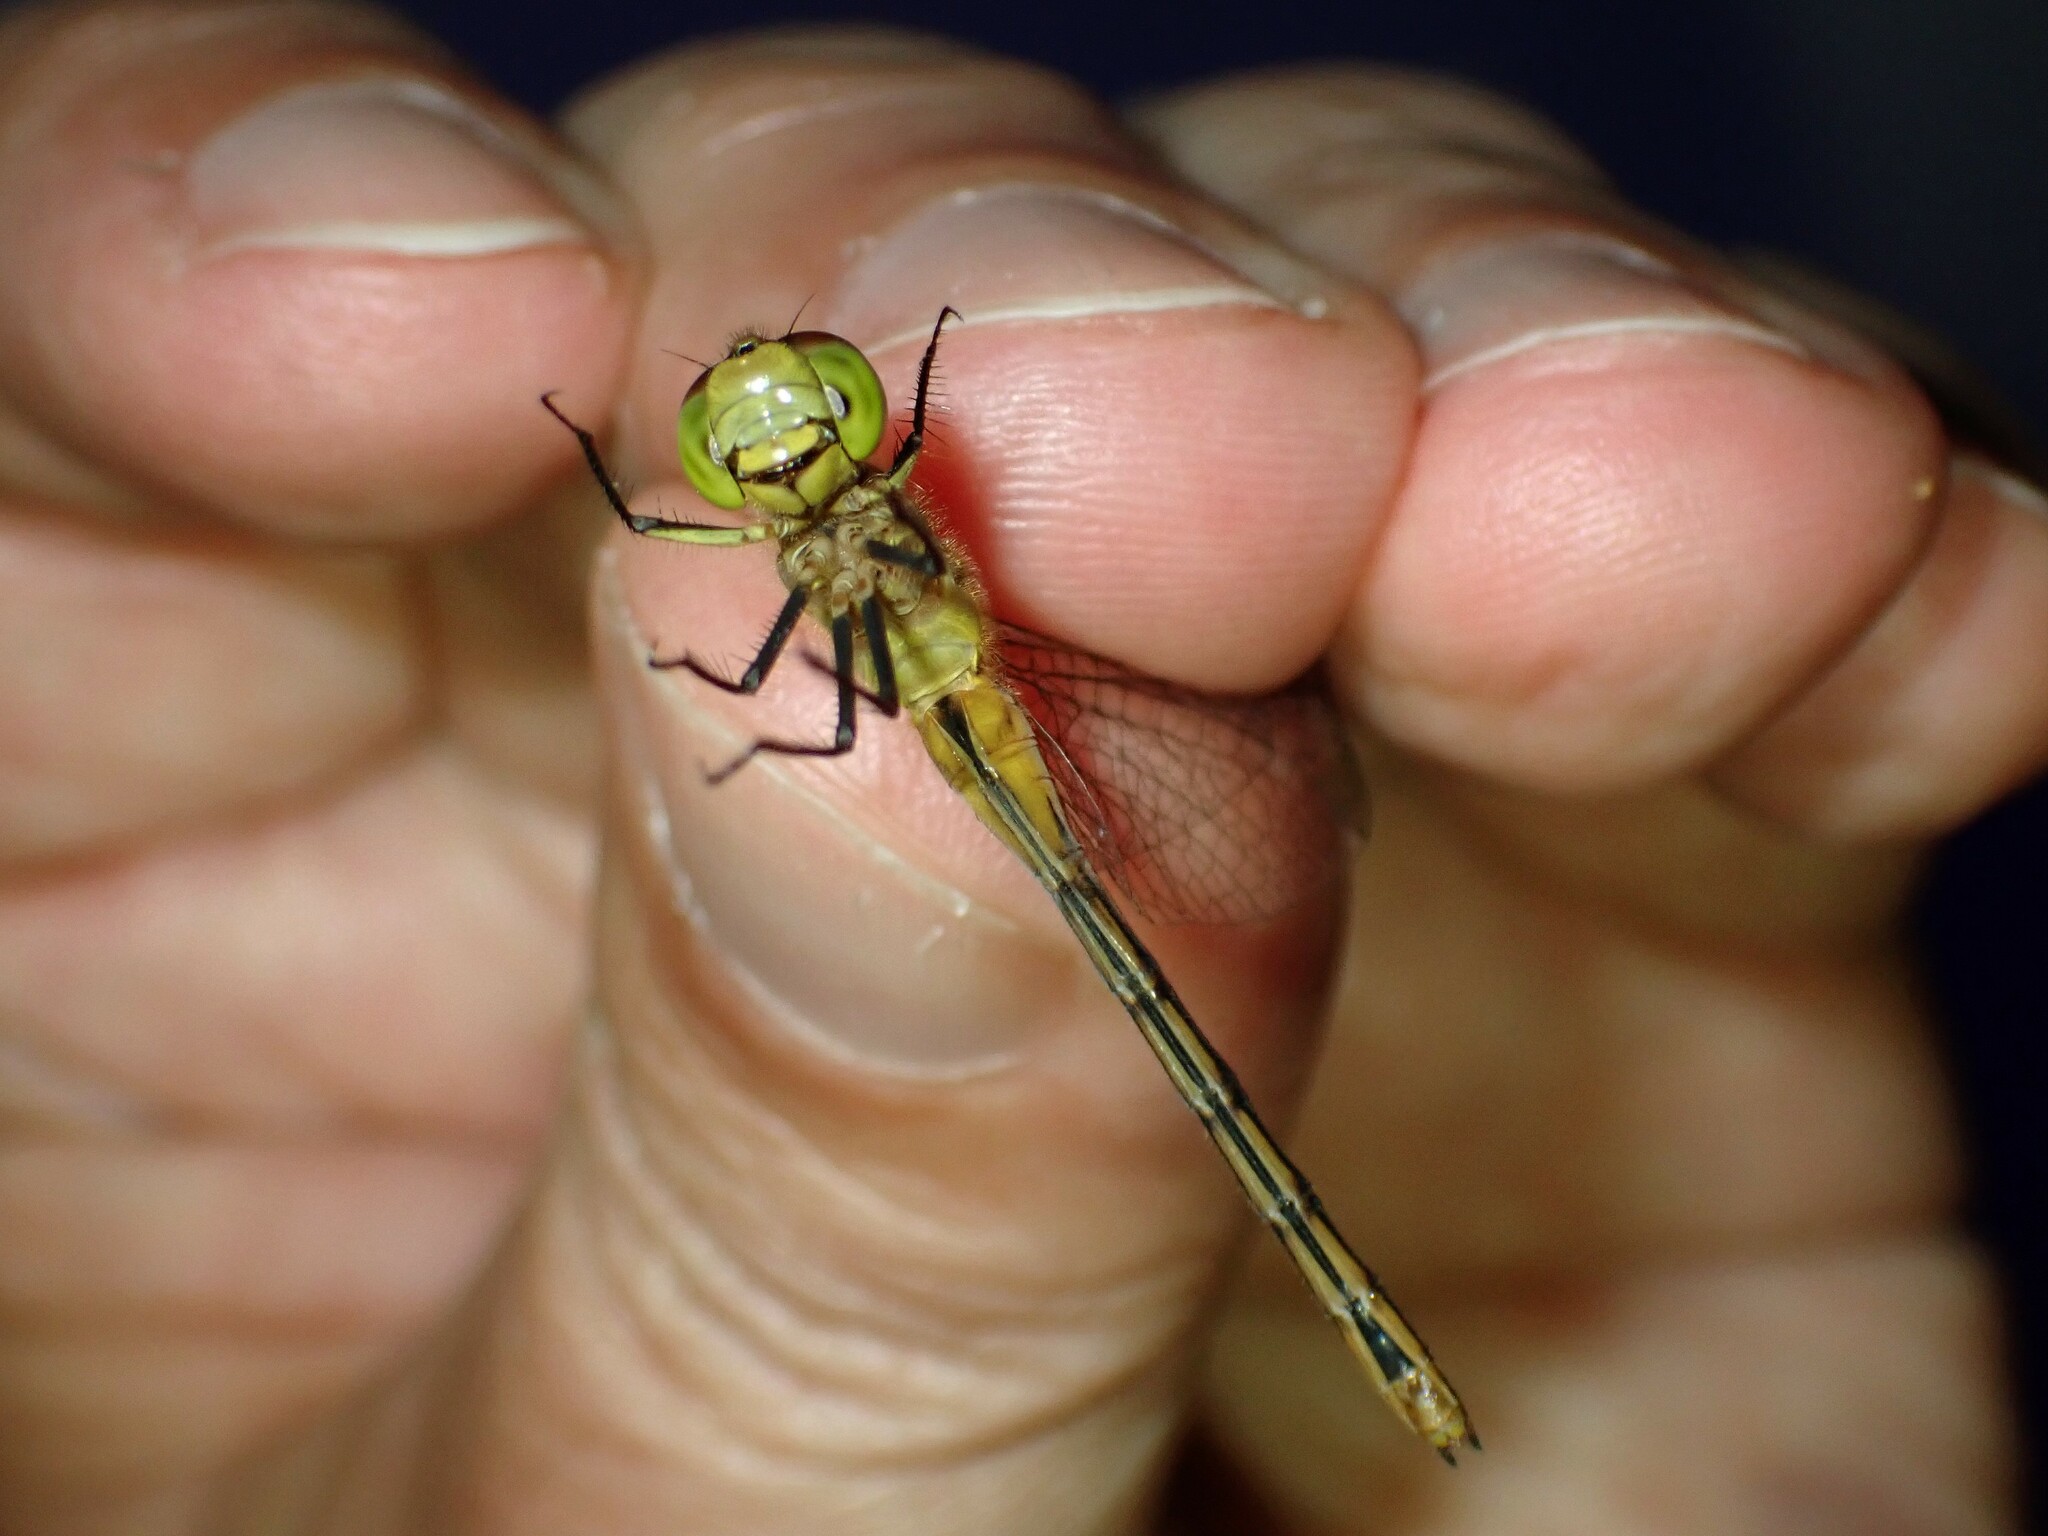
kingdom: Animalia
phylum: Arthropoda
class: Insecta
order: Odonata
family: Libellulidae
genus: Sympetrum
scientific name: Sympetrum
